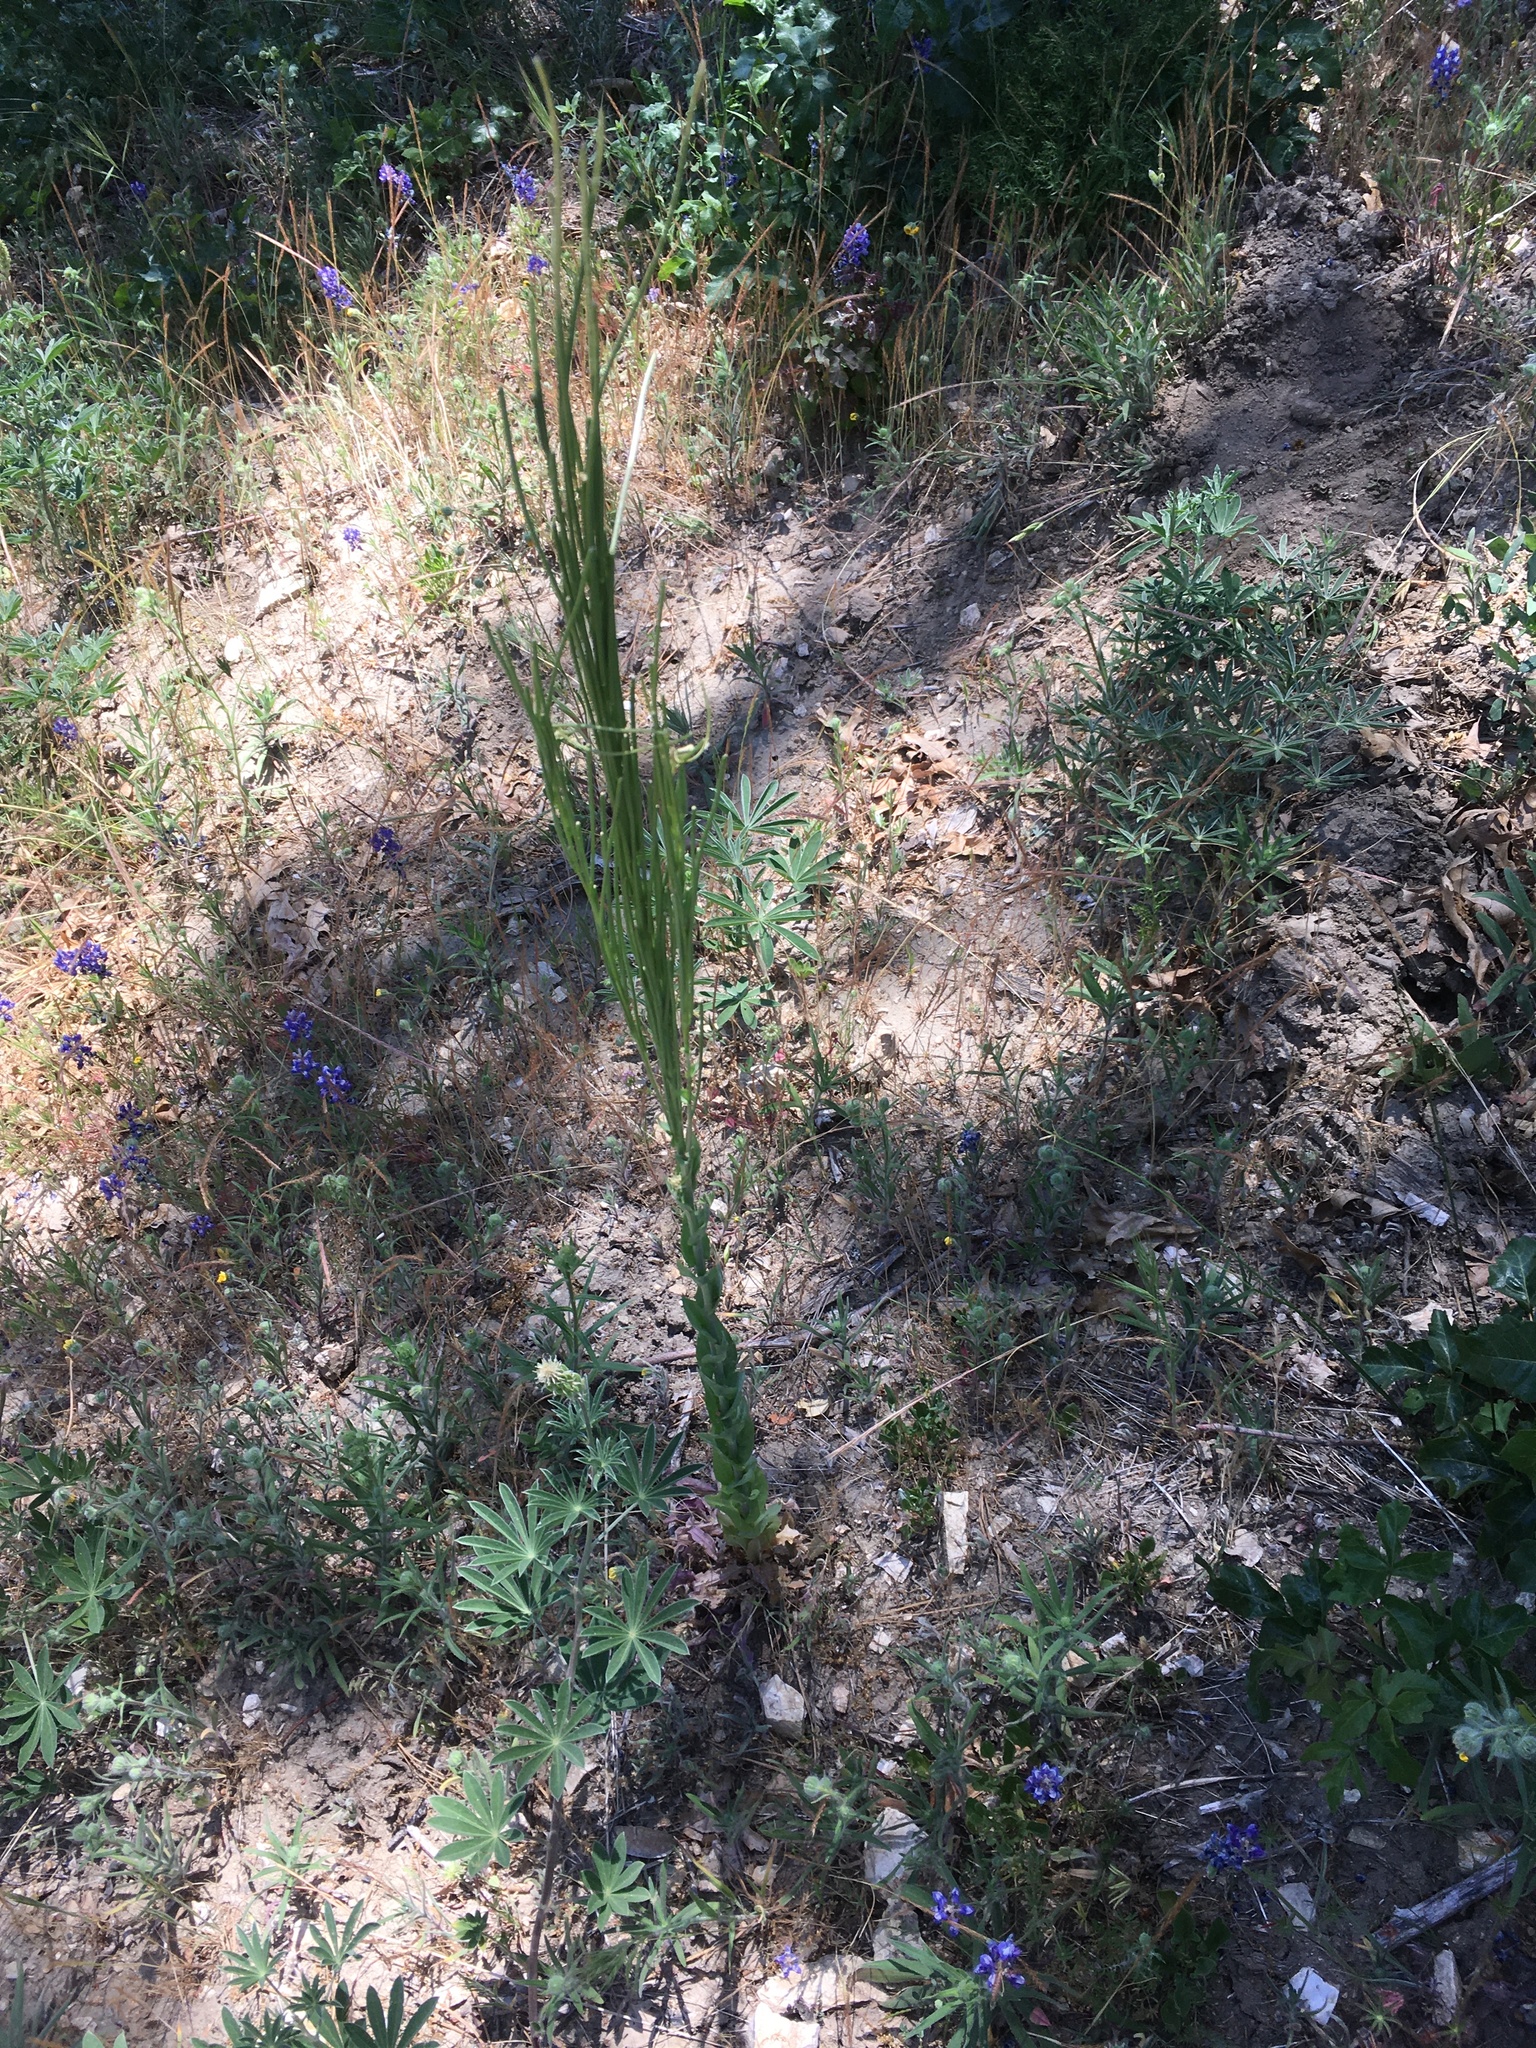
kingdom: Plantae
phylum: Tracheophyta
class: Magnoliopsida
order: Brassicales
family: Brassicaceae
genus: Turritis
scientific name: Turritis glabra
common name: Tower rockcress
